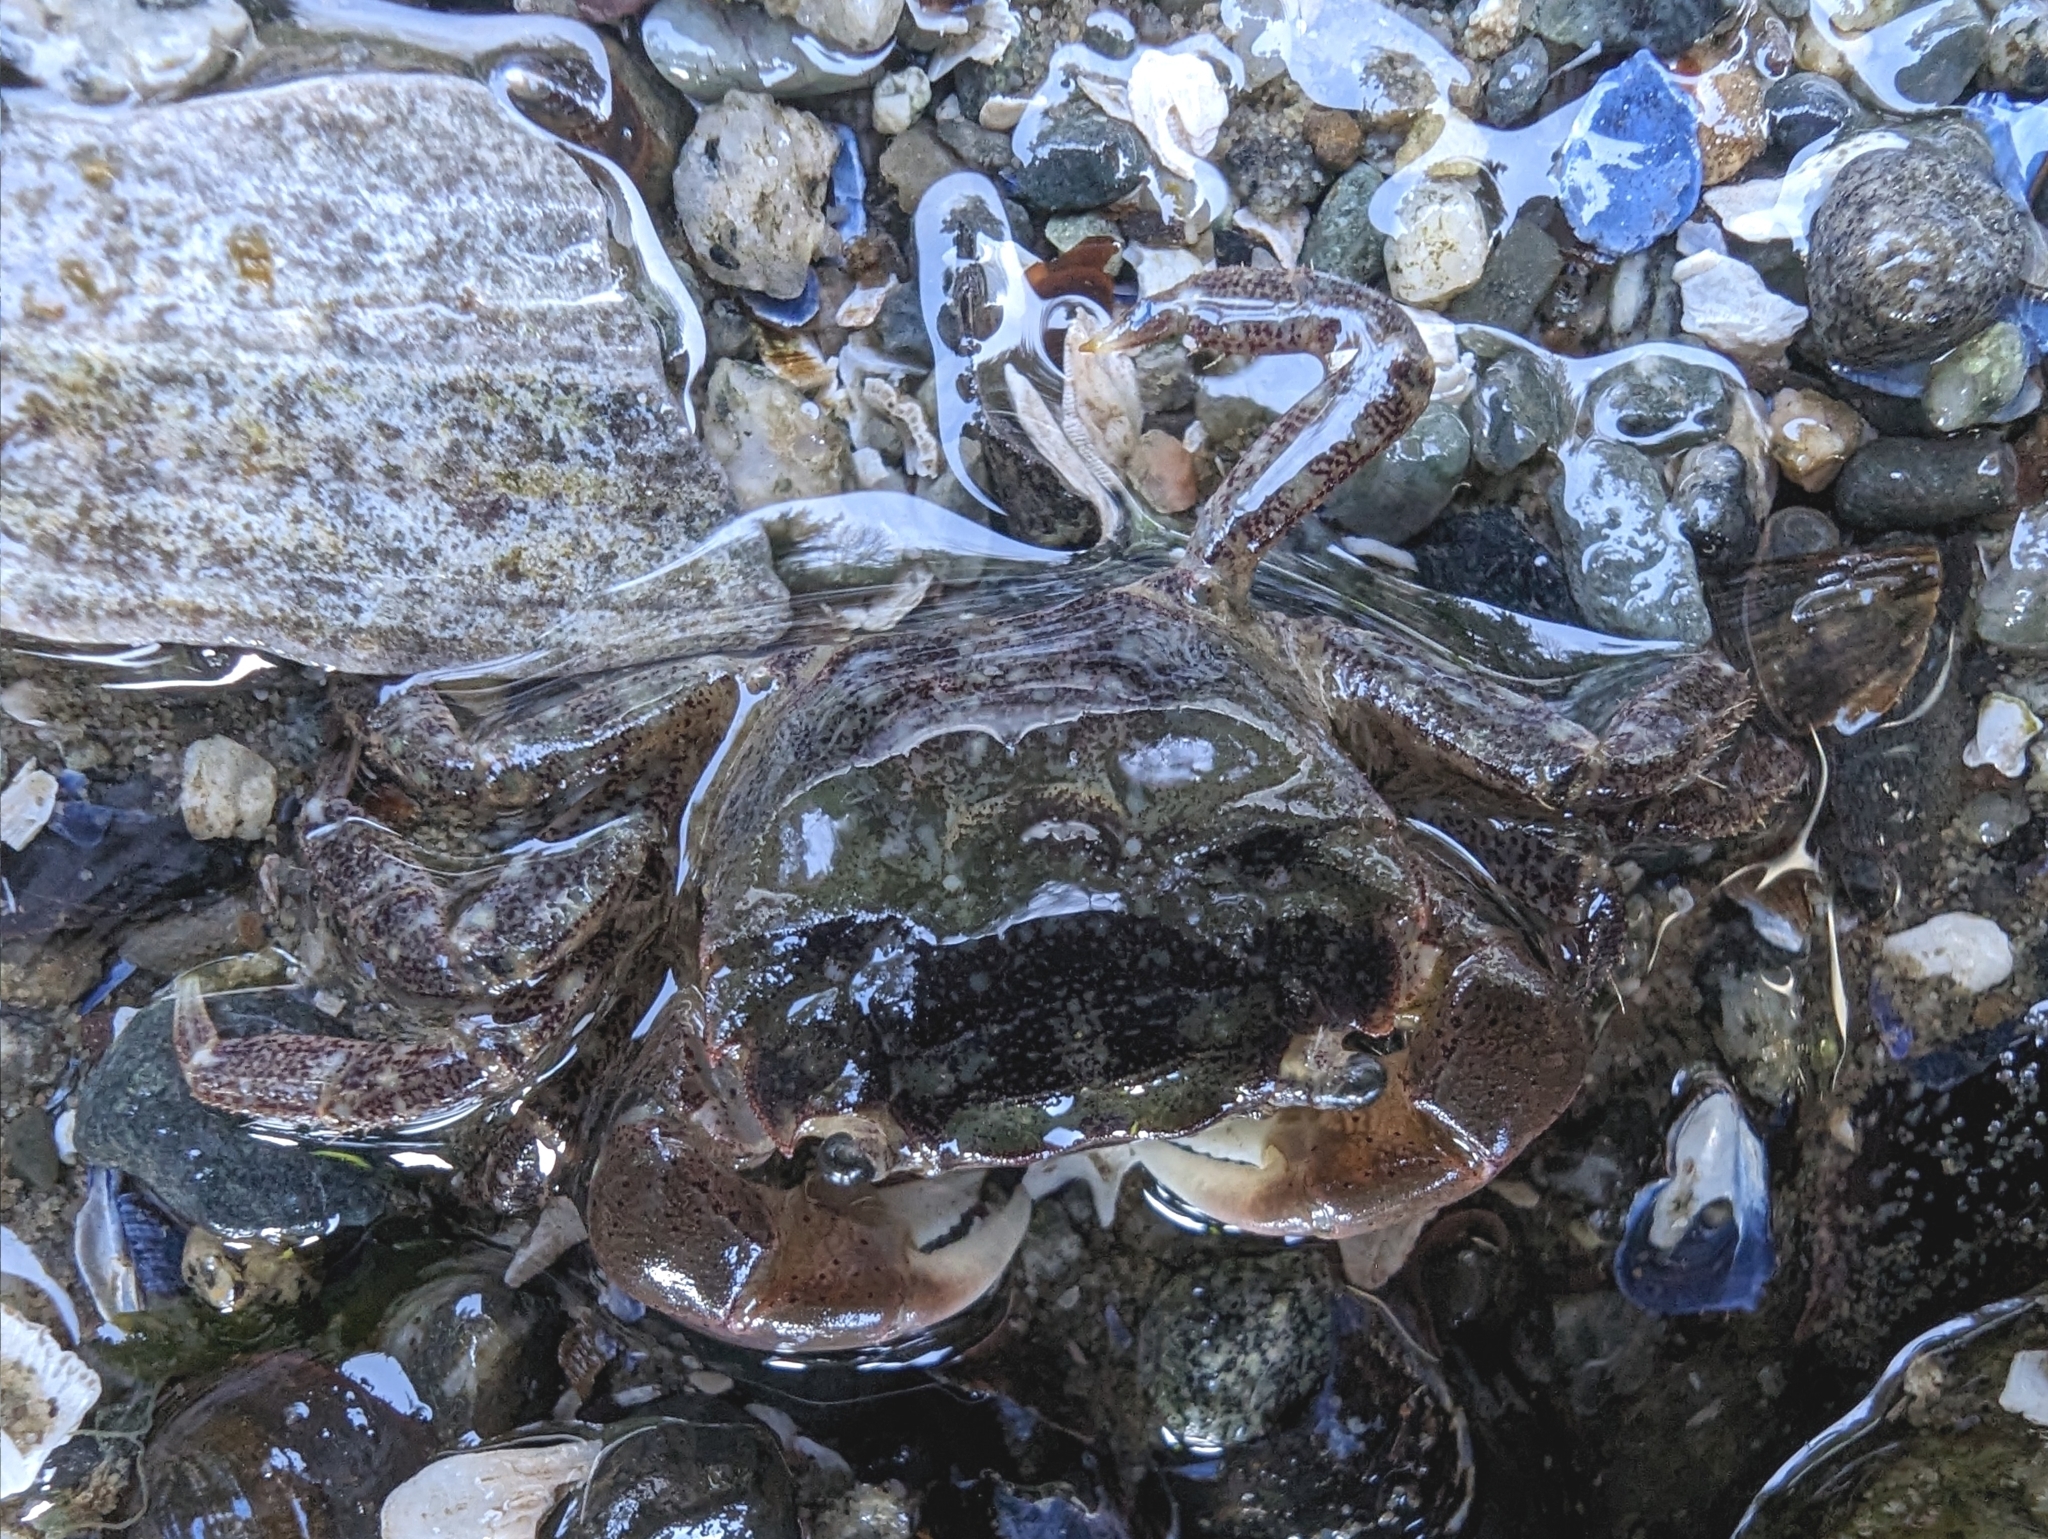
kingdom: Animalia
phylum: Arthropoda
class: Malacostraca
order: Decapoda
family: Varunidae
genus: Hemigrapsus
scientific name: Hemigrapsus oregonensis
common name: Yellow shore crab
